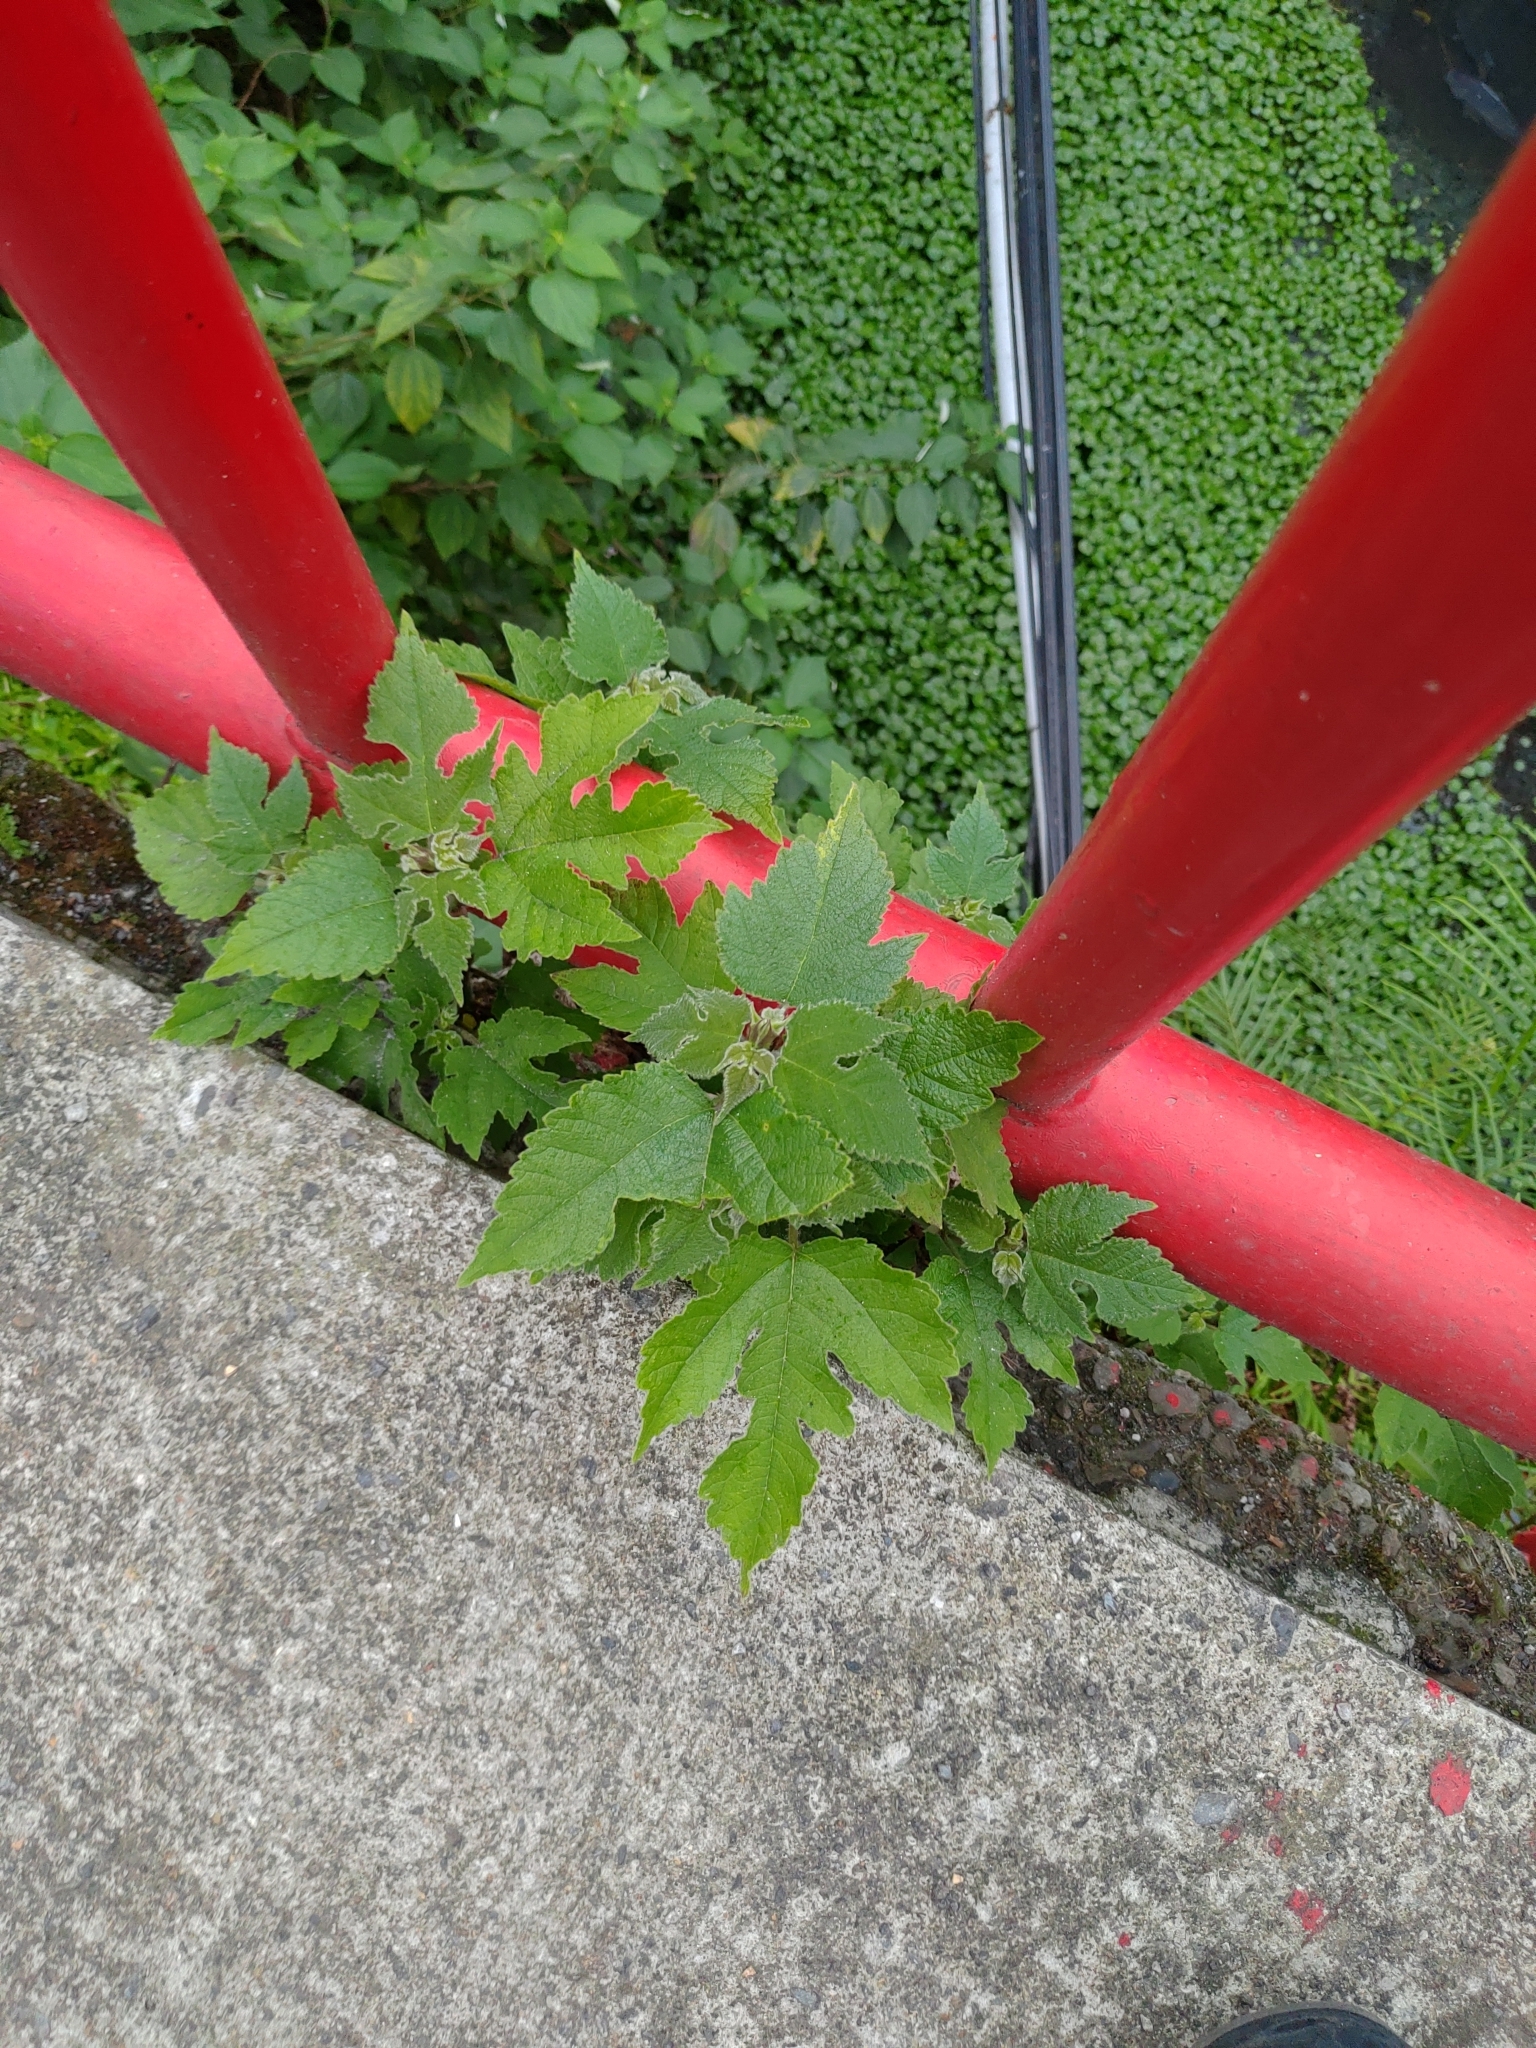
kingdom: Plantae
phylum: Tracheophyta
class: Magnoliopsida
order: Rosales
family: Moraceae
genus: Broussonetia
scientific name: Broussonetia papyrifera
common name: Paper mulberry
